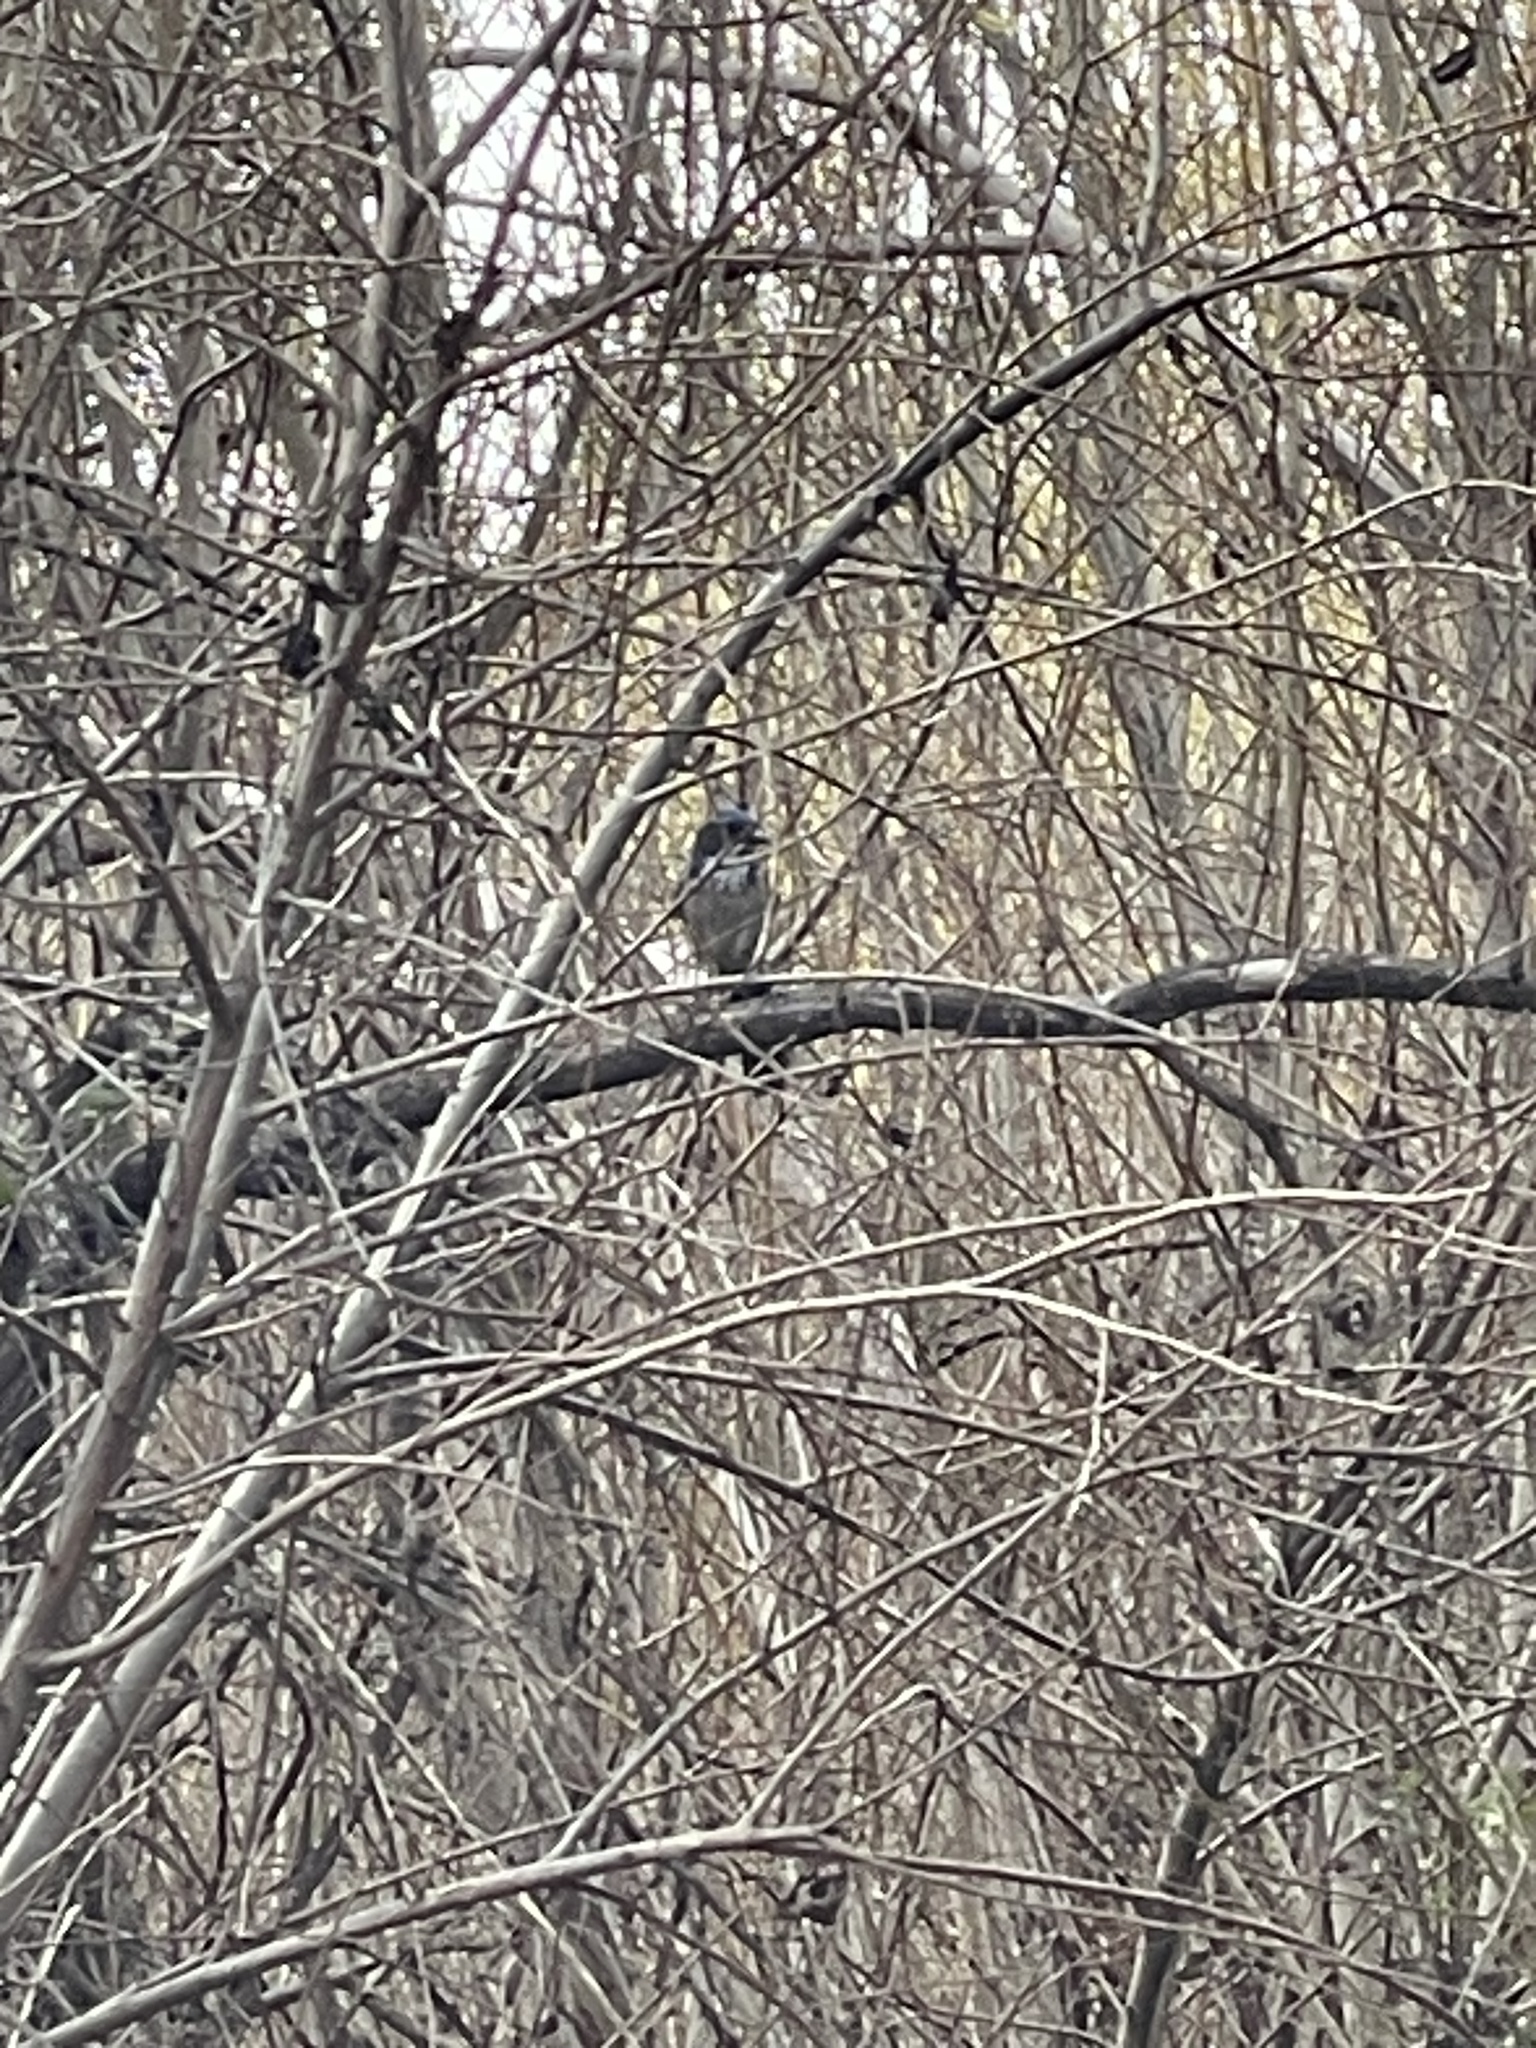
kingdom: Animalia
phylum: Chordata
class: Aves
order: Passeriformes
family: Corvidae
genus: Aphelocoma
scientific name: Aphelocoma californica
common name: California scrub-jay
